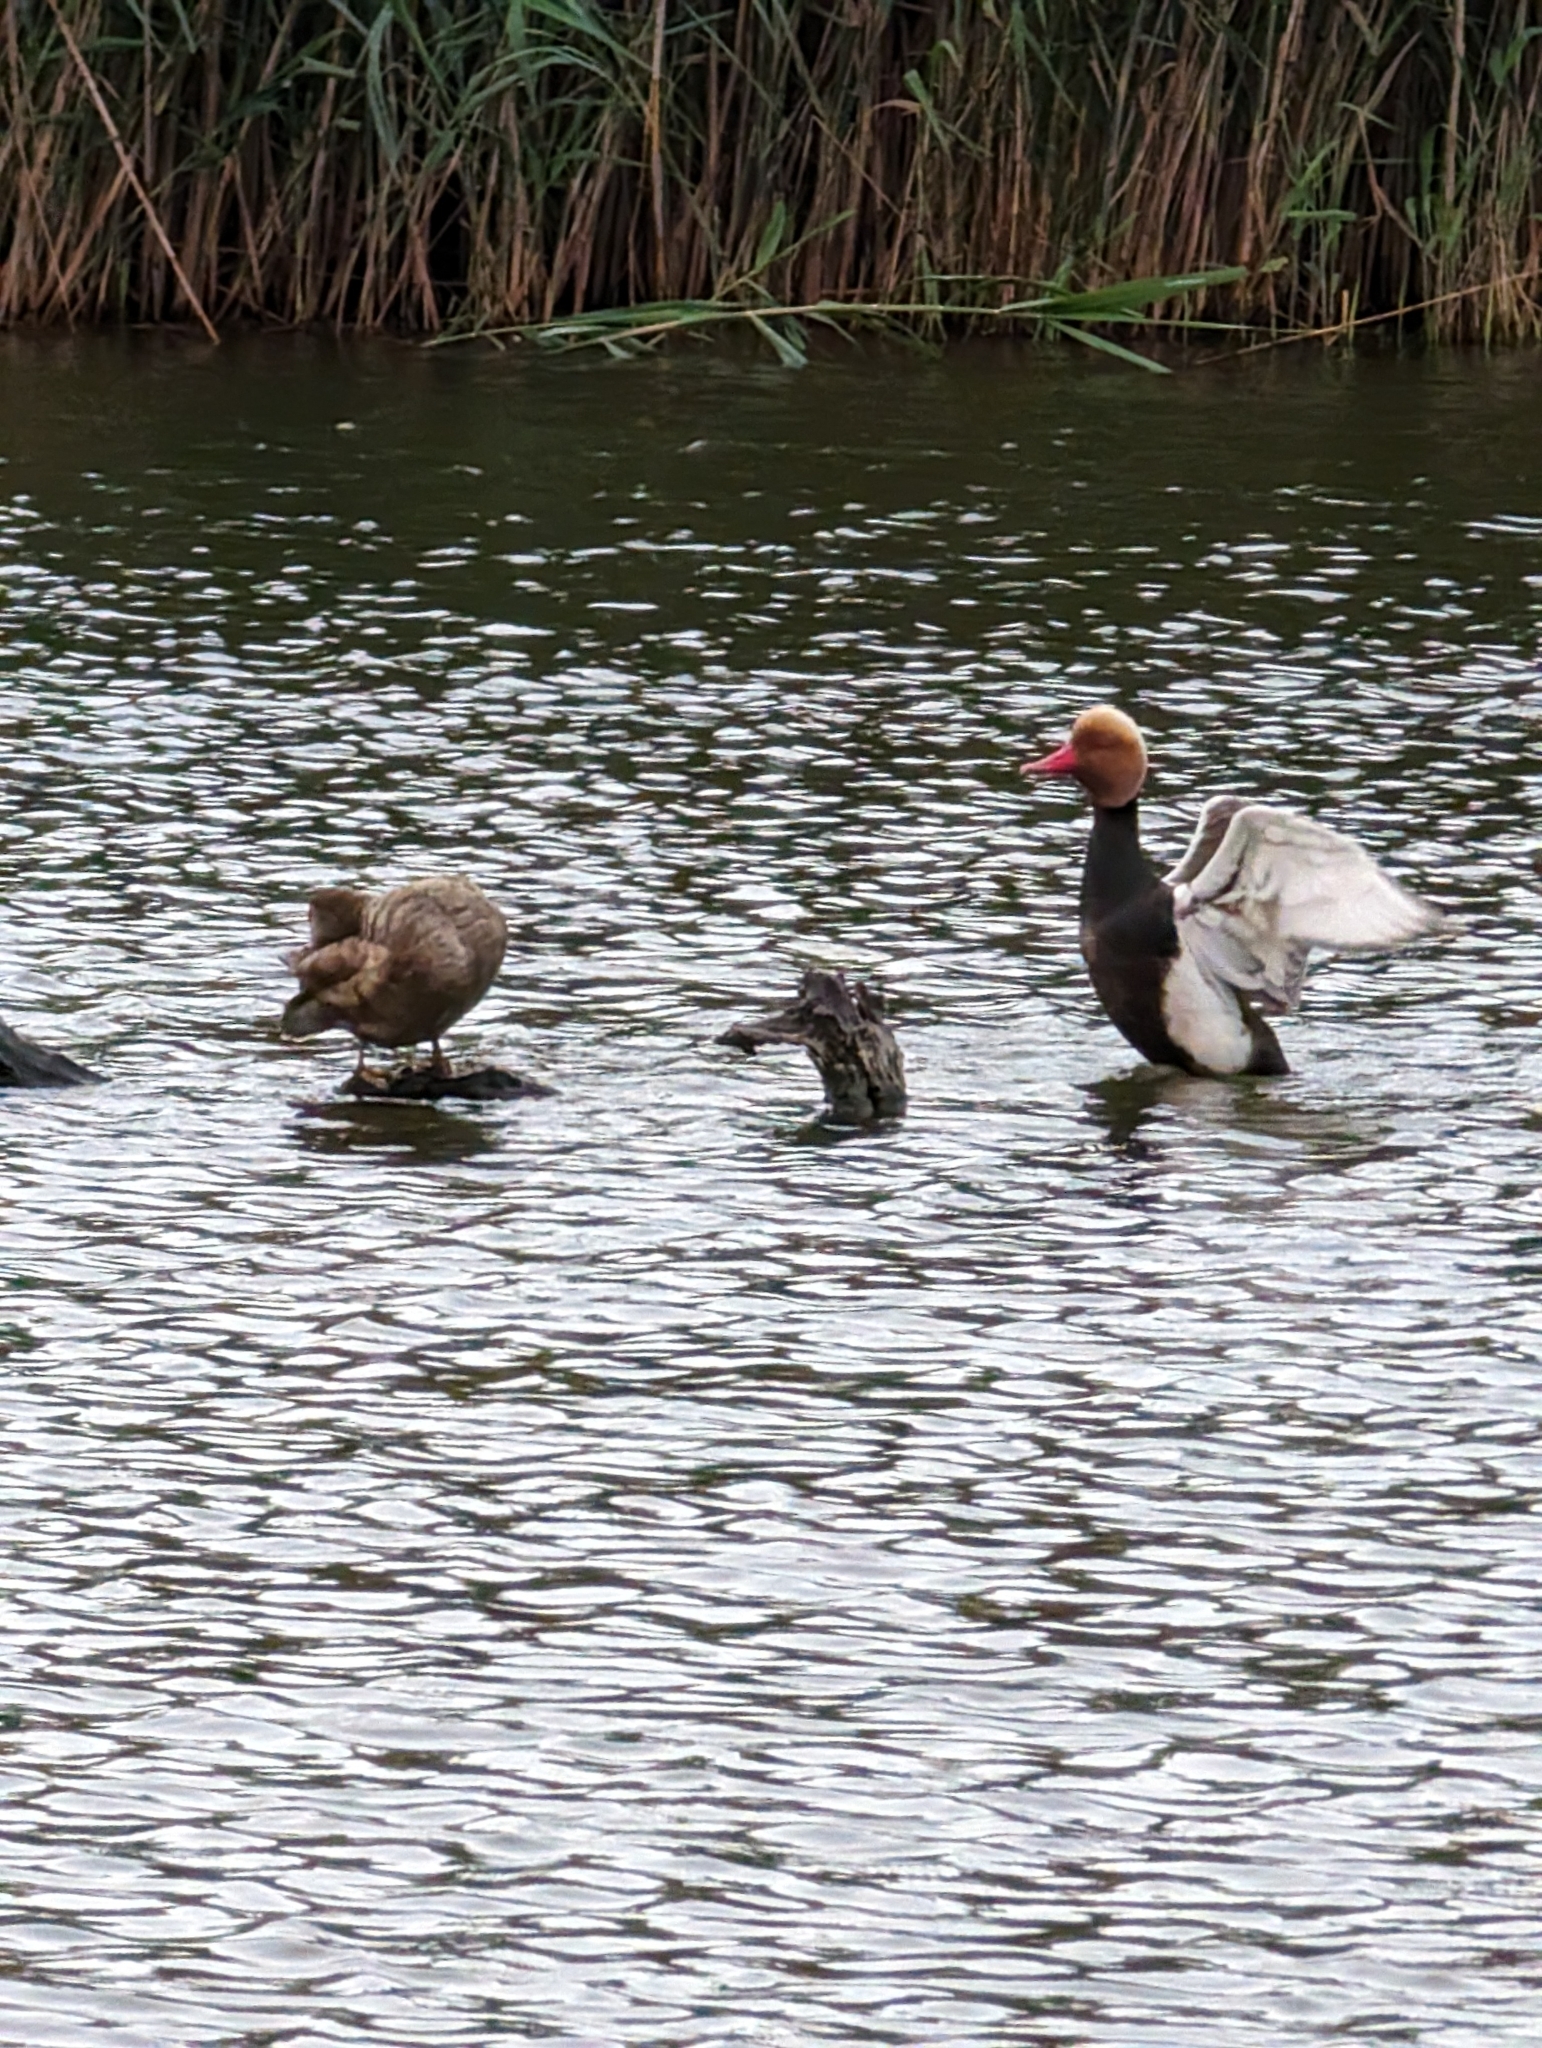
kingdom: Animalia
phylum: Chordata
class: Aves
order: Anseriformes
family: Anatidae
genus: Netta
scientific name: Netta rufina
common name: Red-crested pochard
